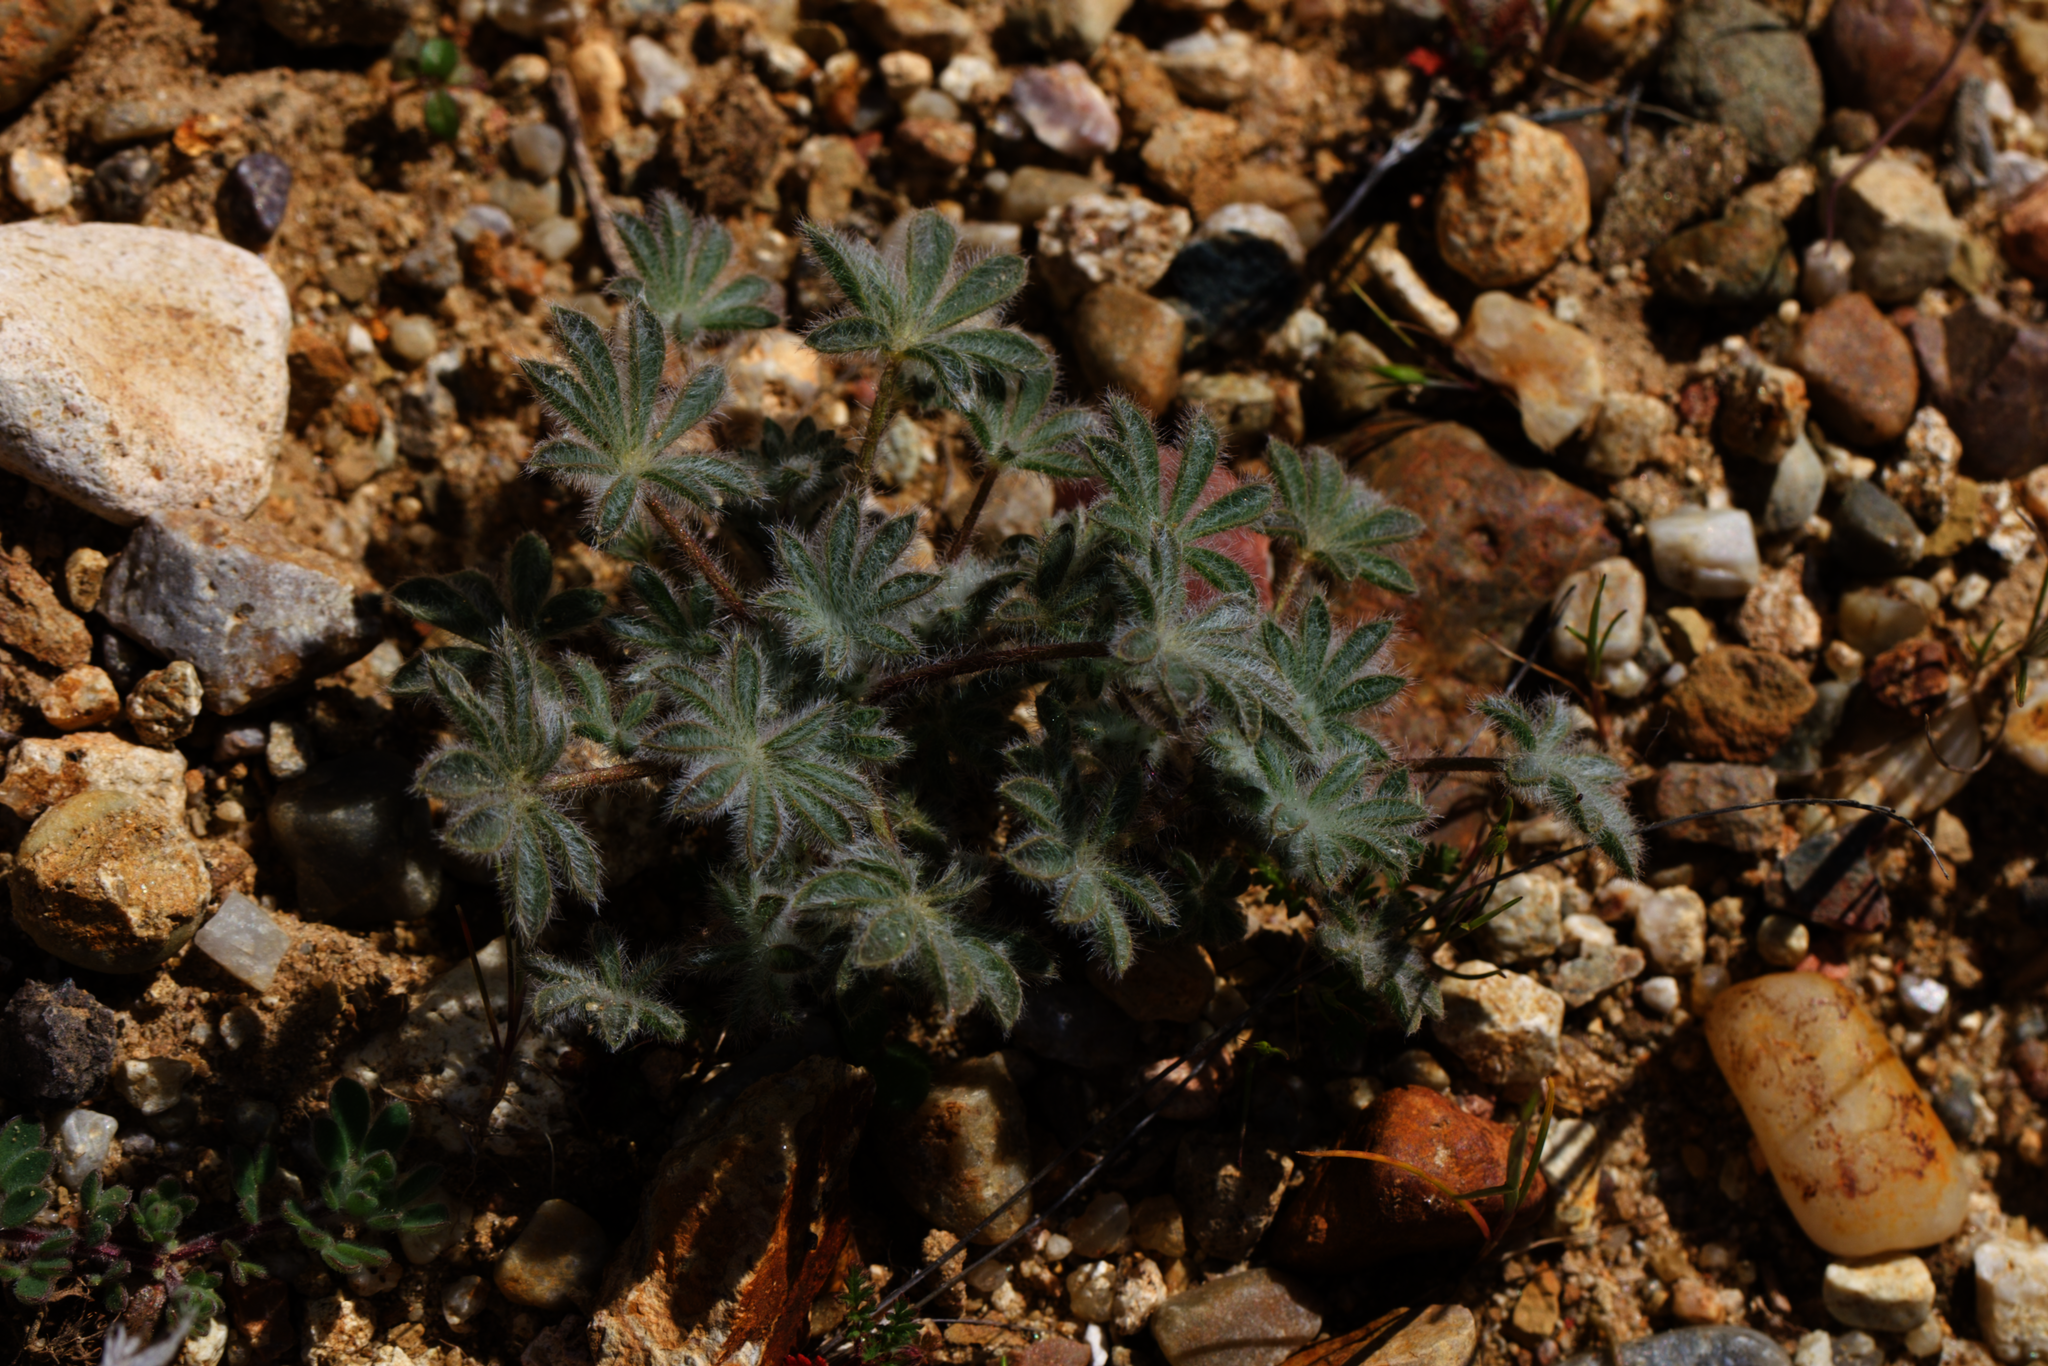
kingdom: Plantae
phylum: Tracheophyta
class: Magnoliopsida
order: Fabales
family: Fabaceae
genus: Lupinus
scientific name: Lupinus concinnus
